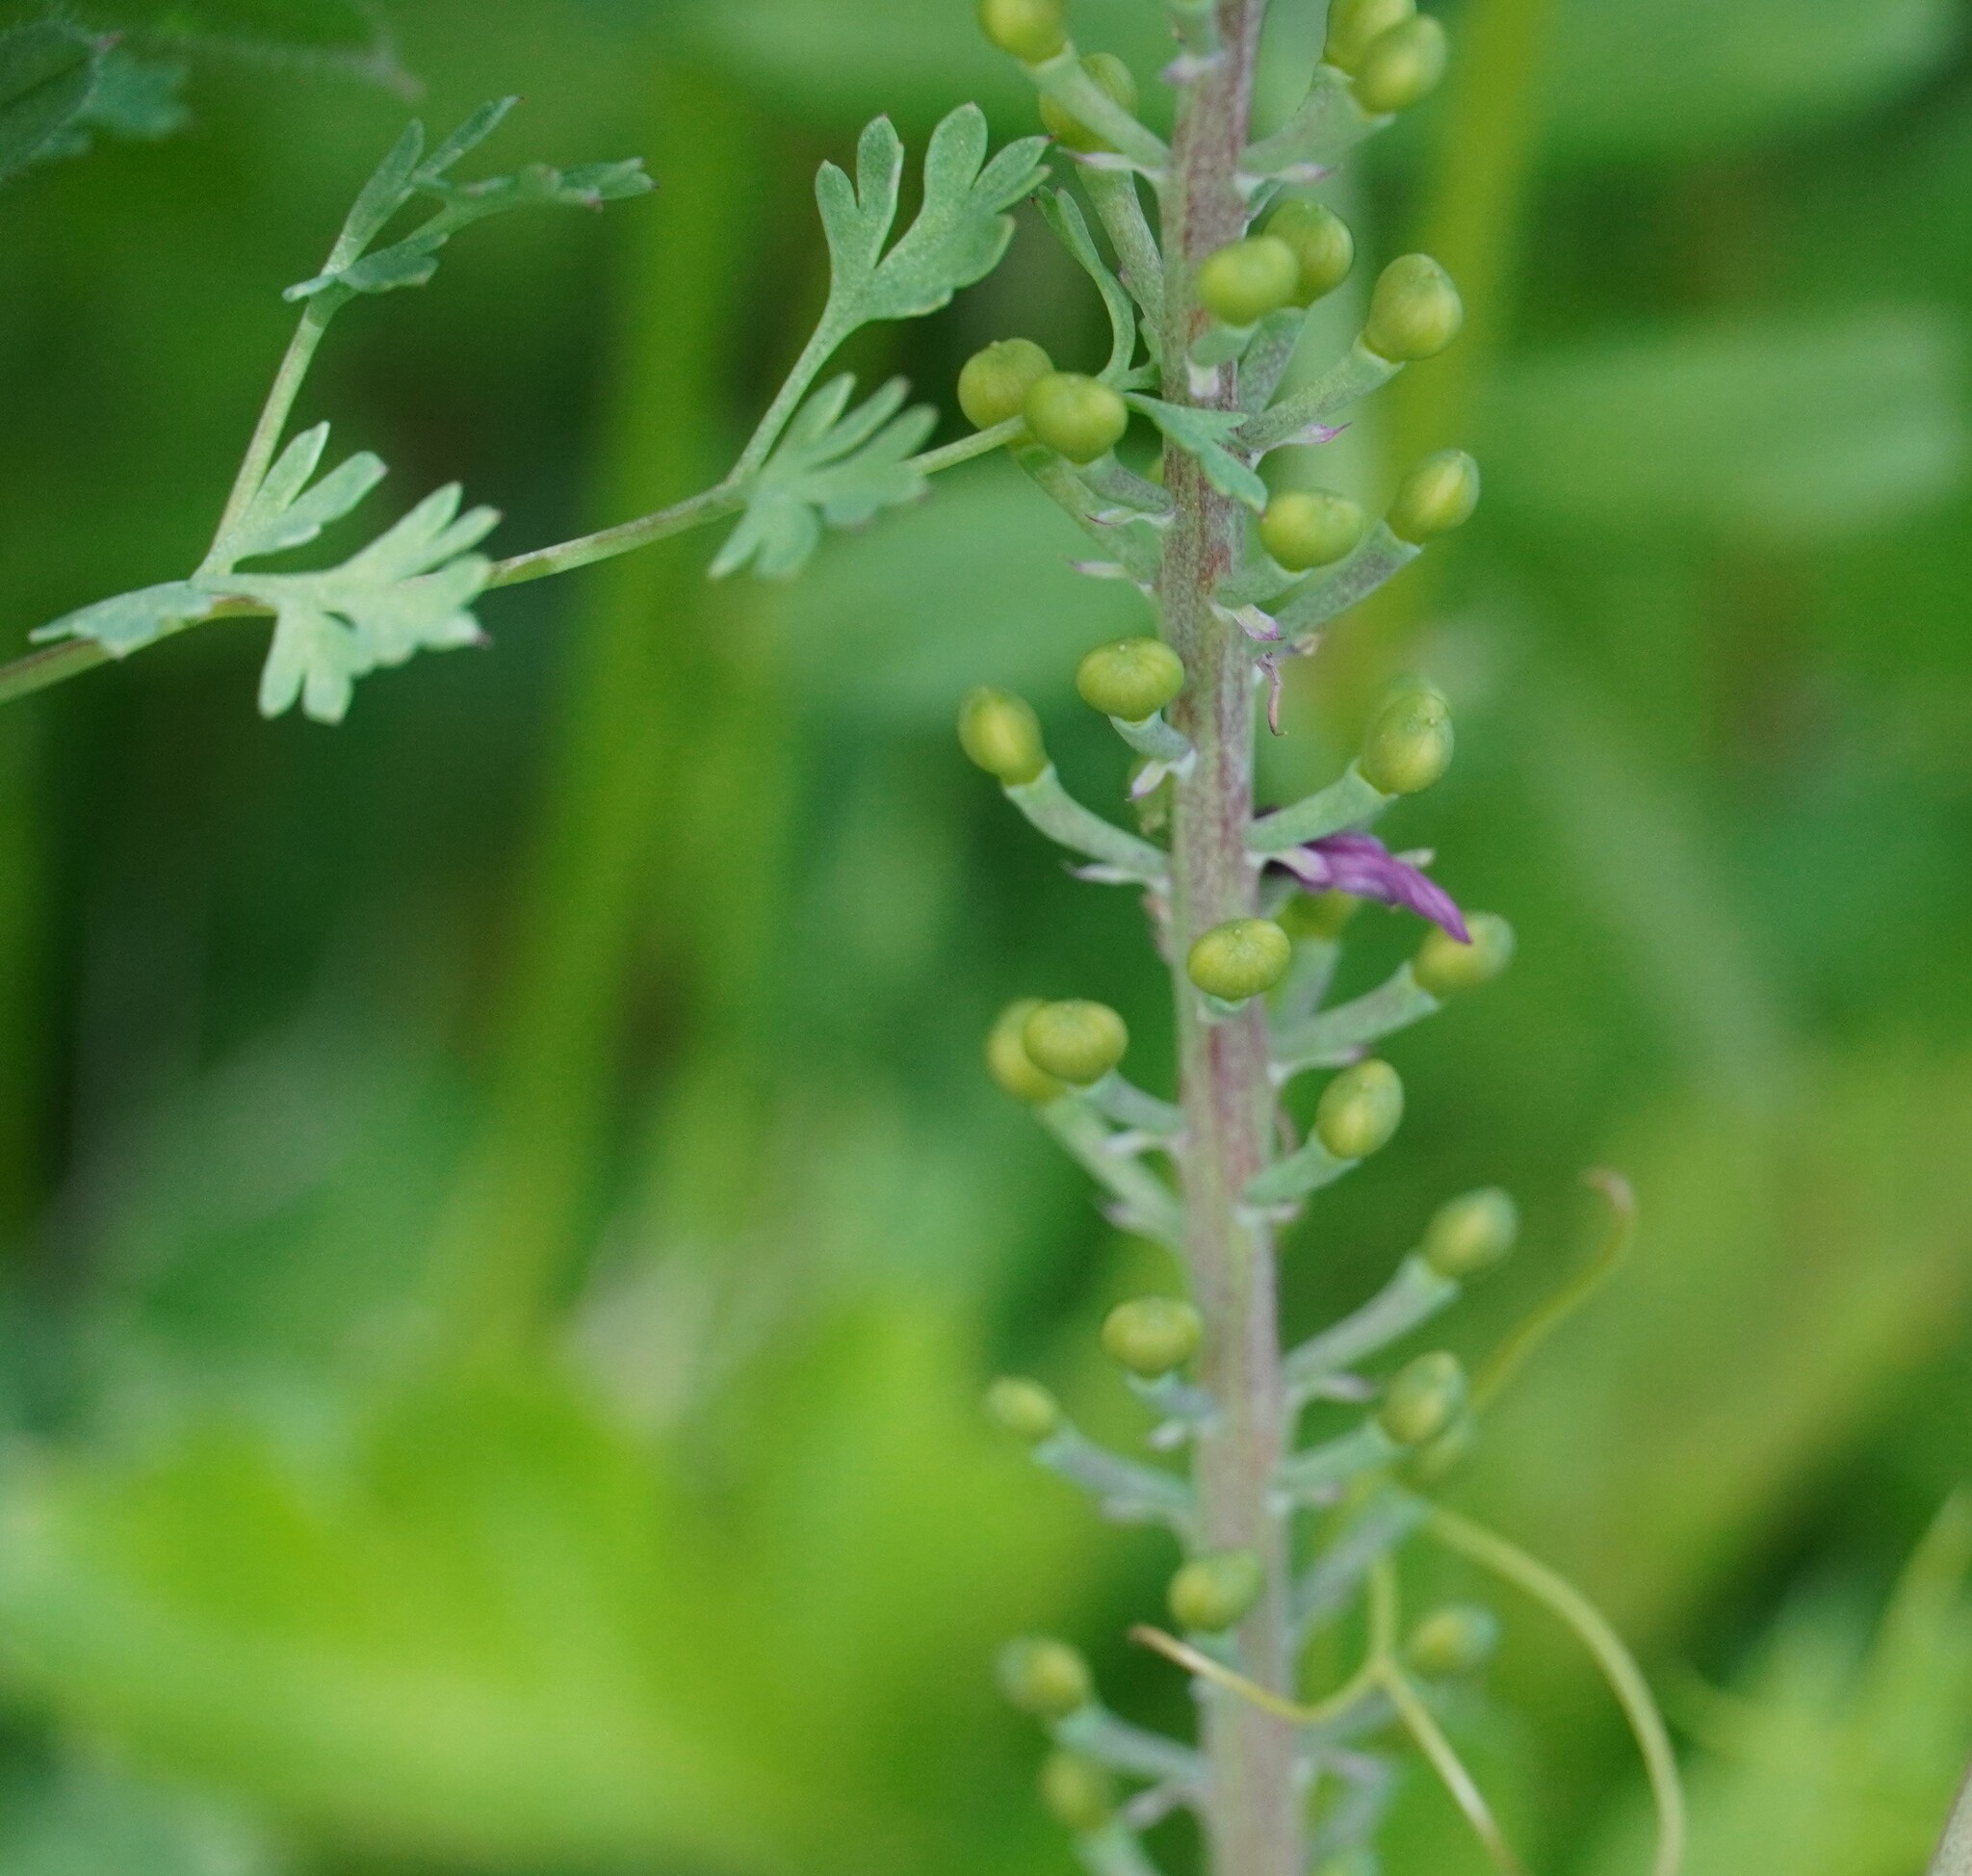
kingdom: Plantae
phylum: Tracheophyta
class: Magnoliopsida
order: Ranunculales
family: Papaveraceae
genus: Fumaria
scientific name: Fumaria officinalis
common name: Common fumitory
